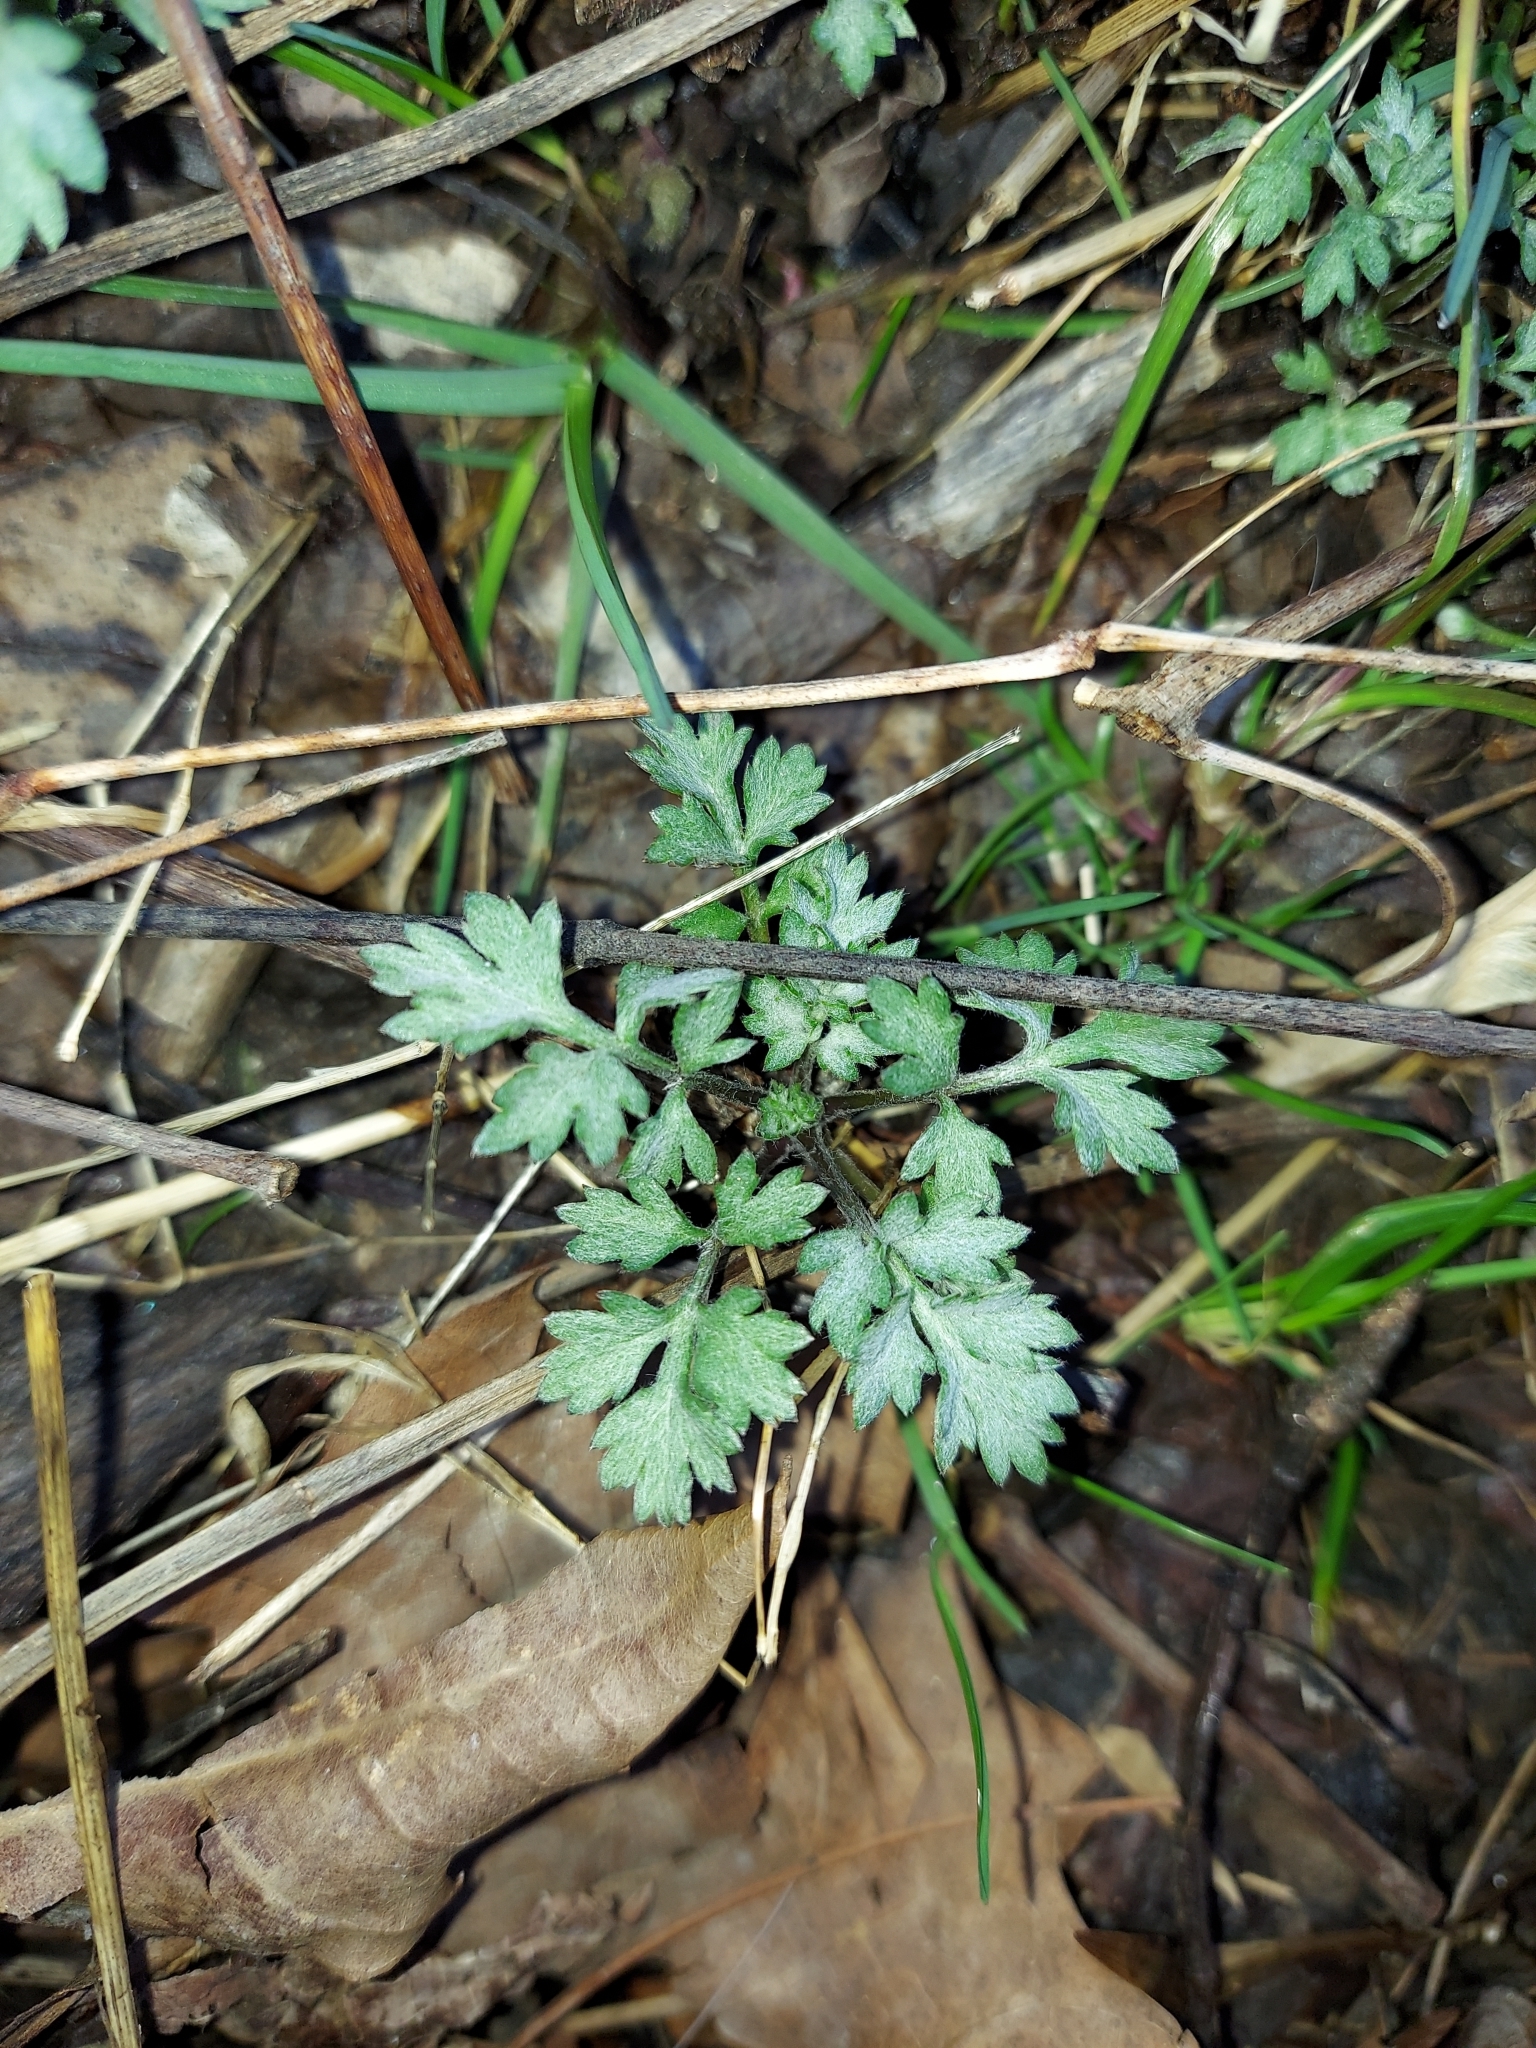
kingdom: Plantae
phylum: Tracheophyta
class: Magnoliopsida
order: Asterales
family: Asteraceae
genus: Artemisia
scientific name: Artemisia vulgaris
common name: Mugwort
